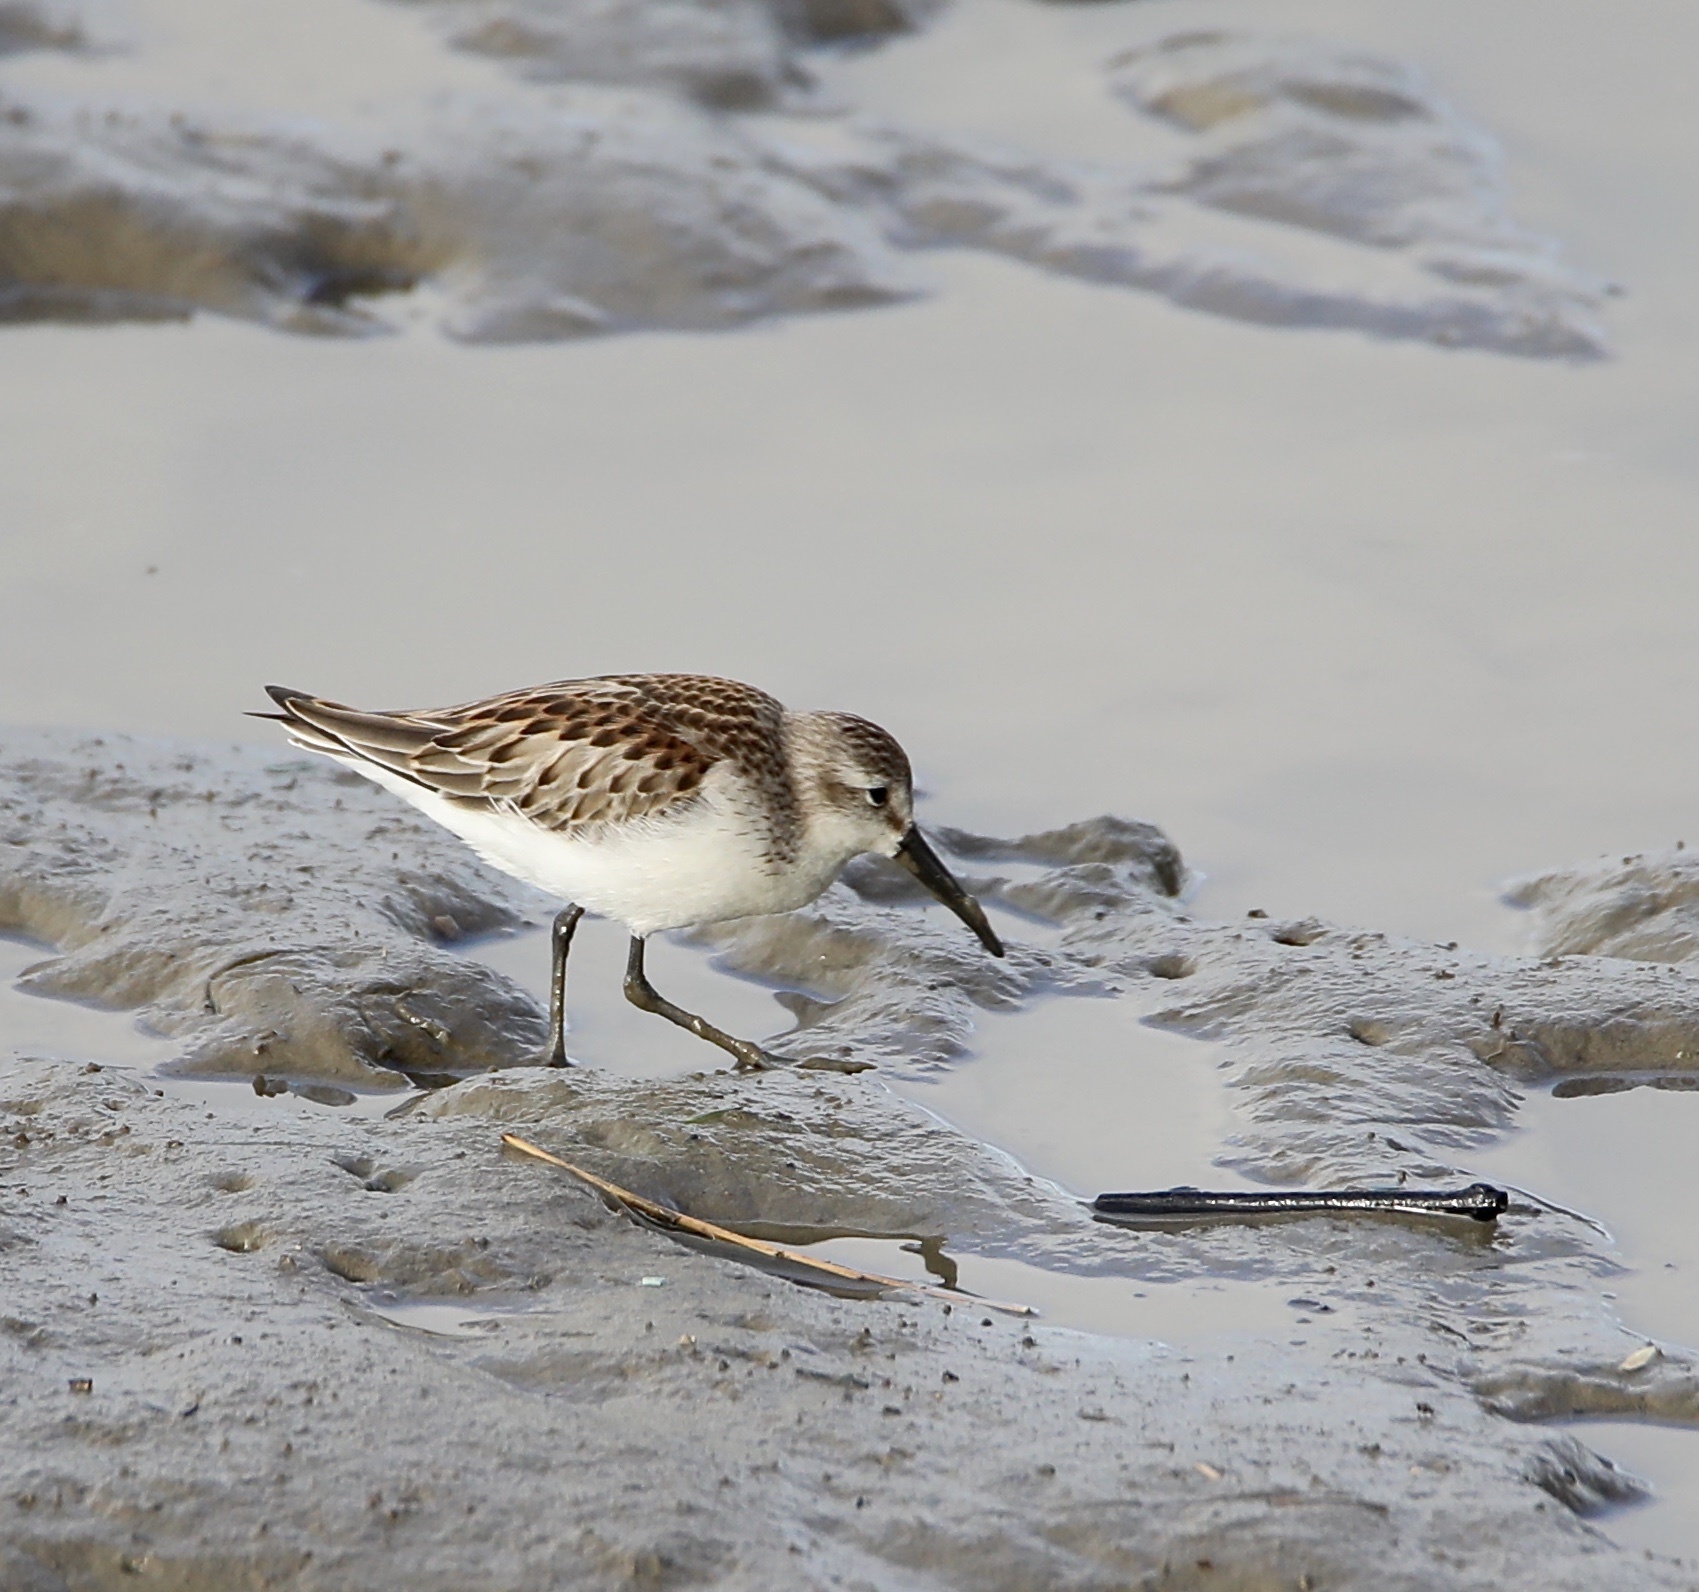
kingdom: Animalia
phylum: Chordata
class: Aves
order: Charadriiformes
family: Scolopacidae
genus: Calidris
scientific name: Calidris mauri
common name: Western sandpiper
